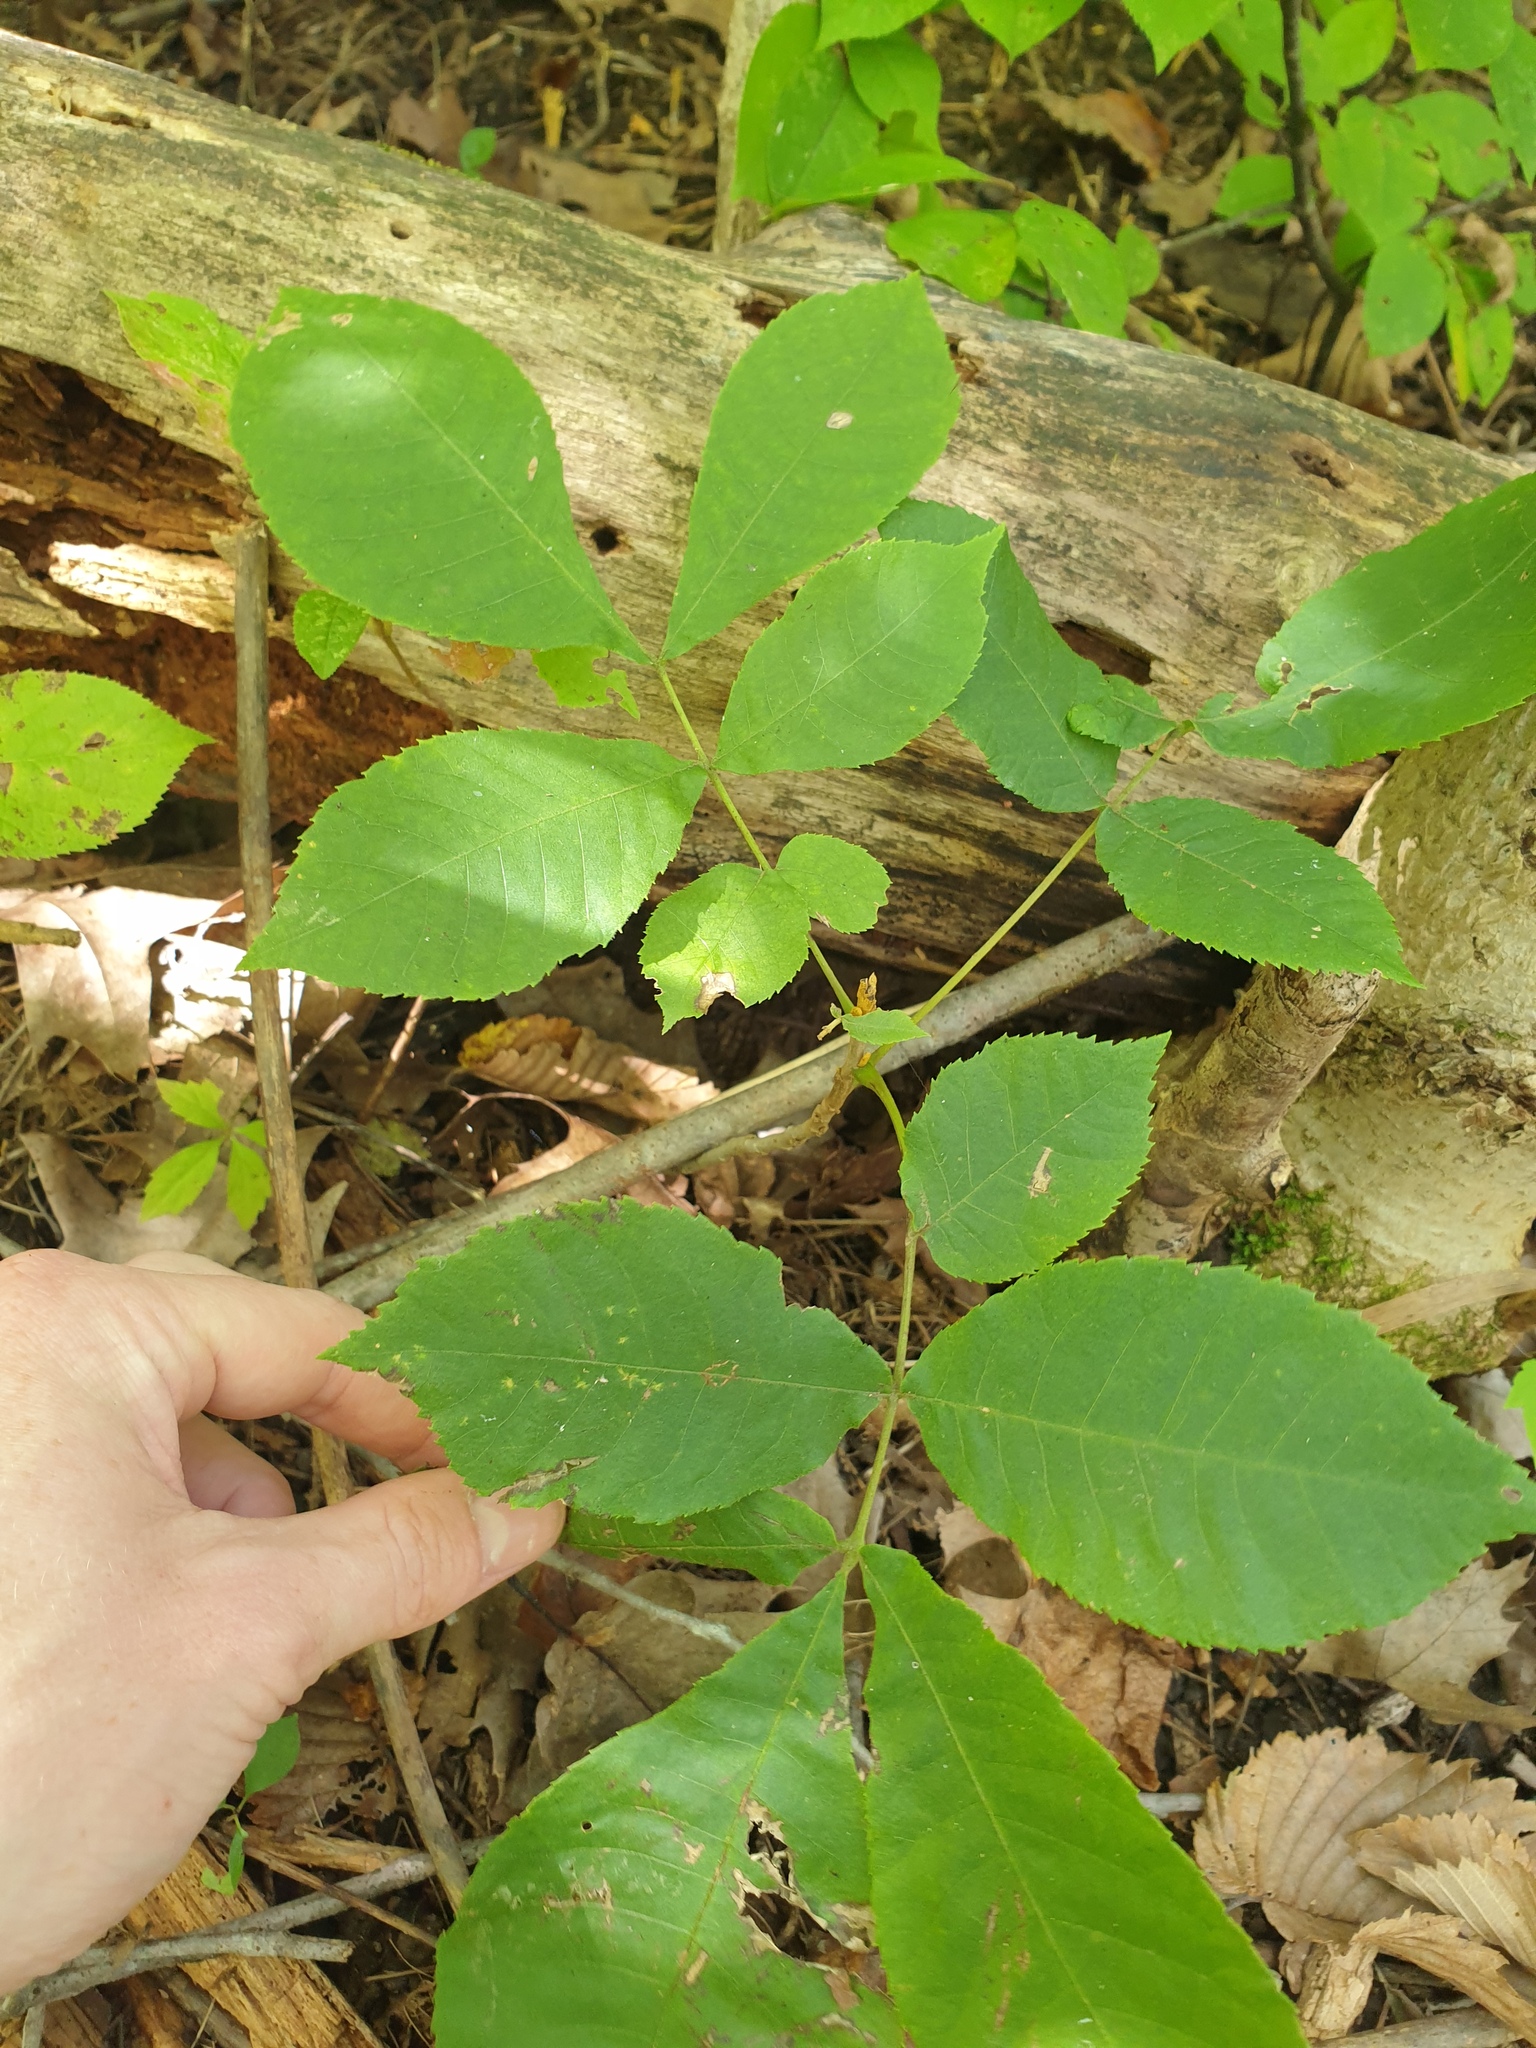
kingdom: Plantae
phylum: Tracheophyta
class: Magnoliopsida
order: Fagales
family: Juglandaceae
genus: Carya
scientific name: Carya cordiformis
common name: Bitternut hickory
